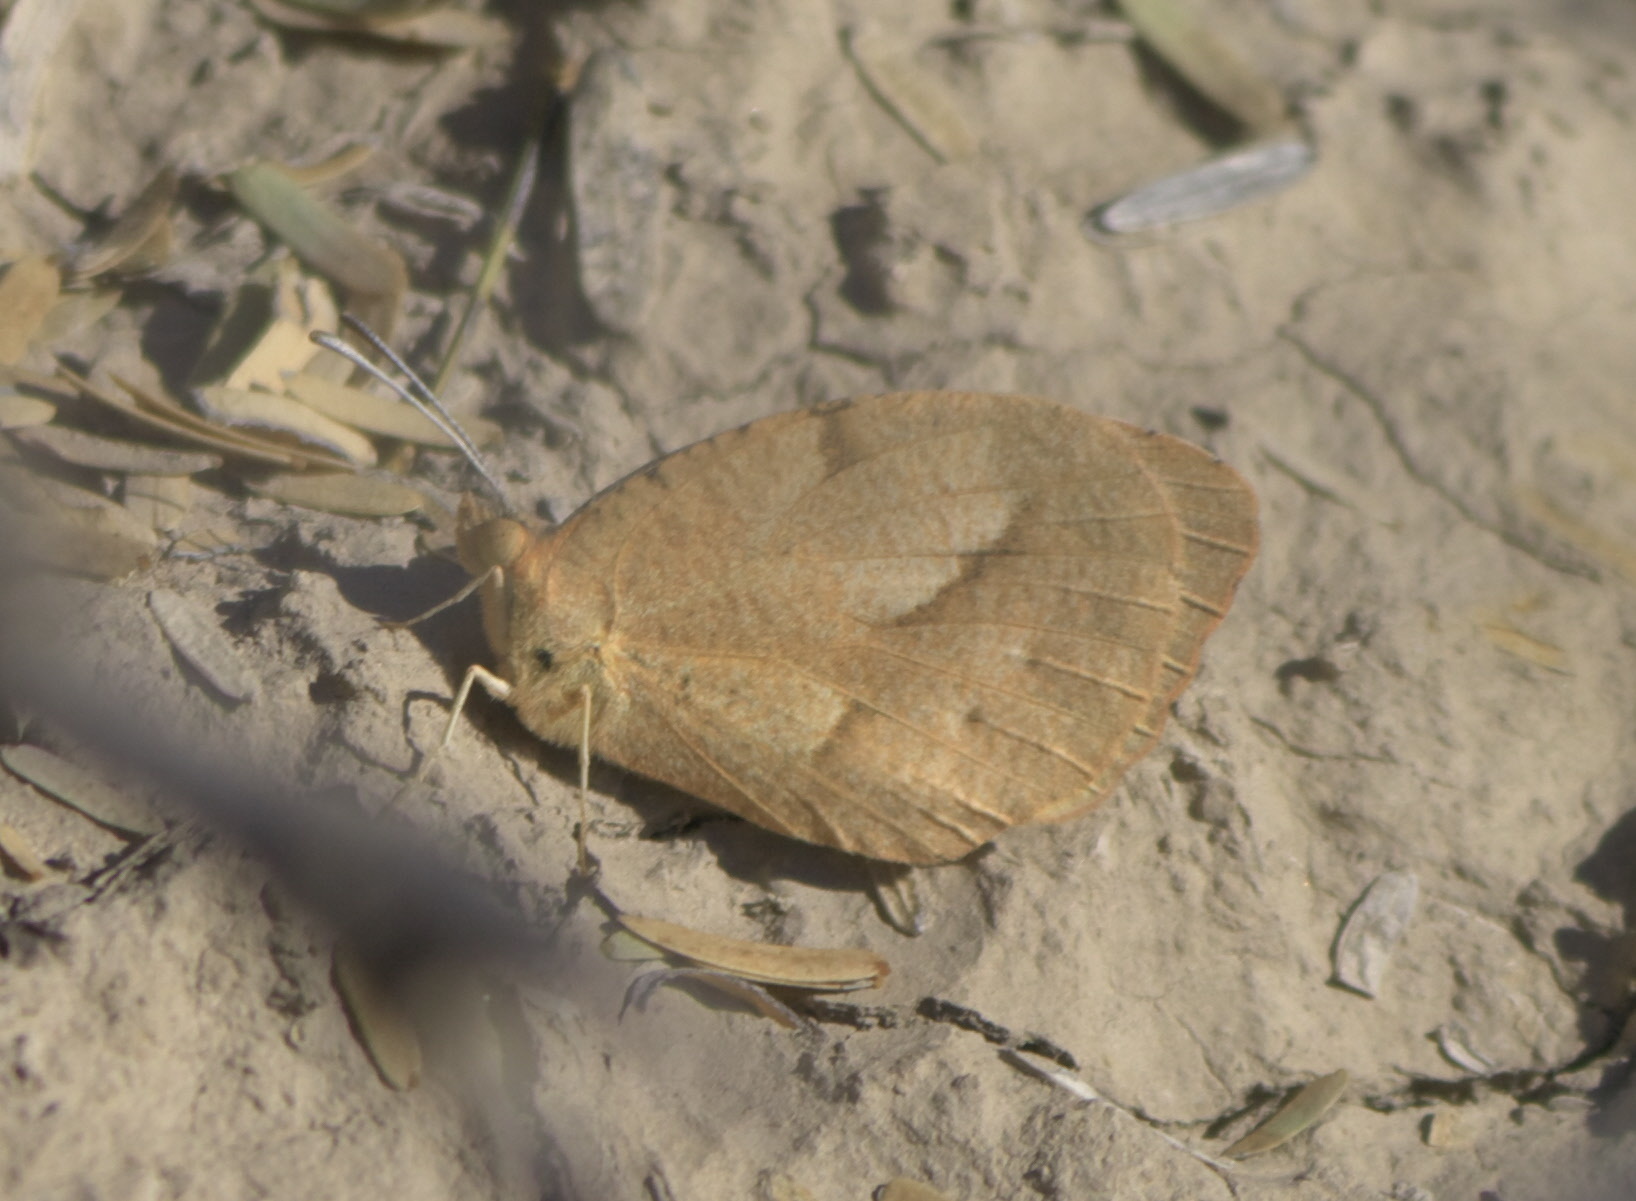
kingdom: Animalia
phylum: Arthropoda
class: Insecta
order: Lepidoptera
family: Pieridae
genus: Abaeis
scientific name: Abaeis nicippe
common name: Sleepy orange
